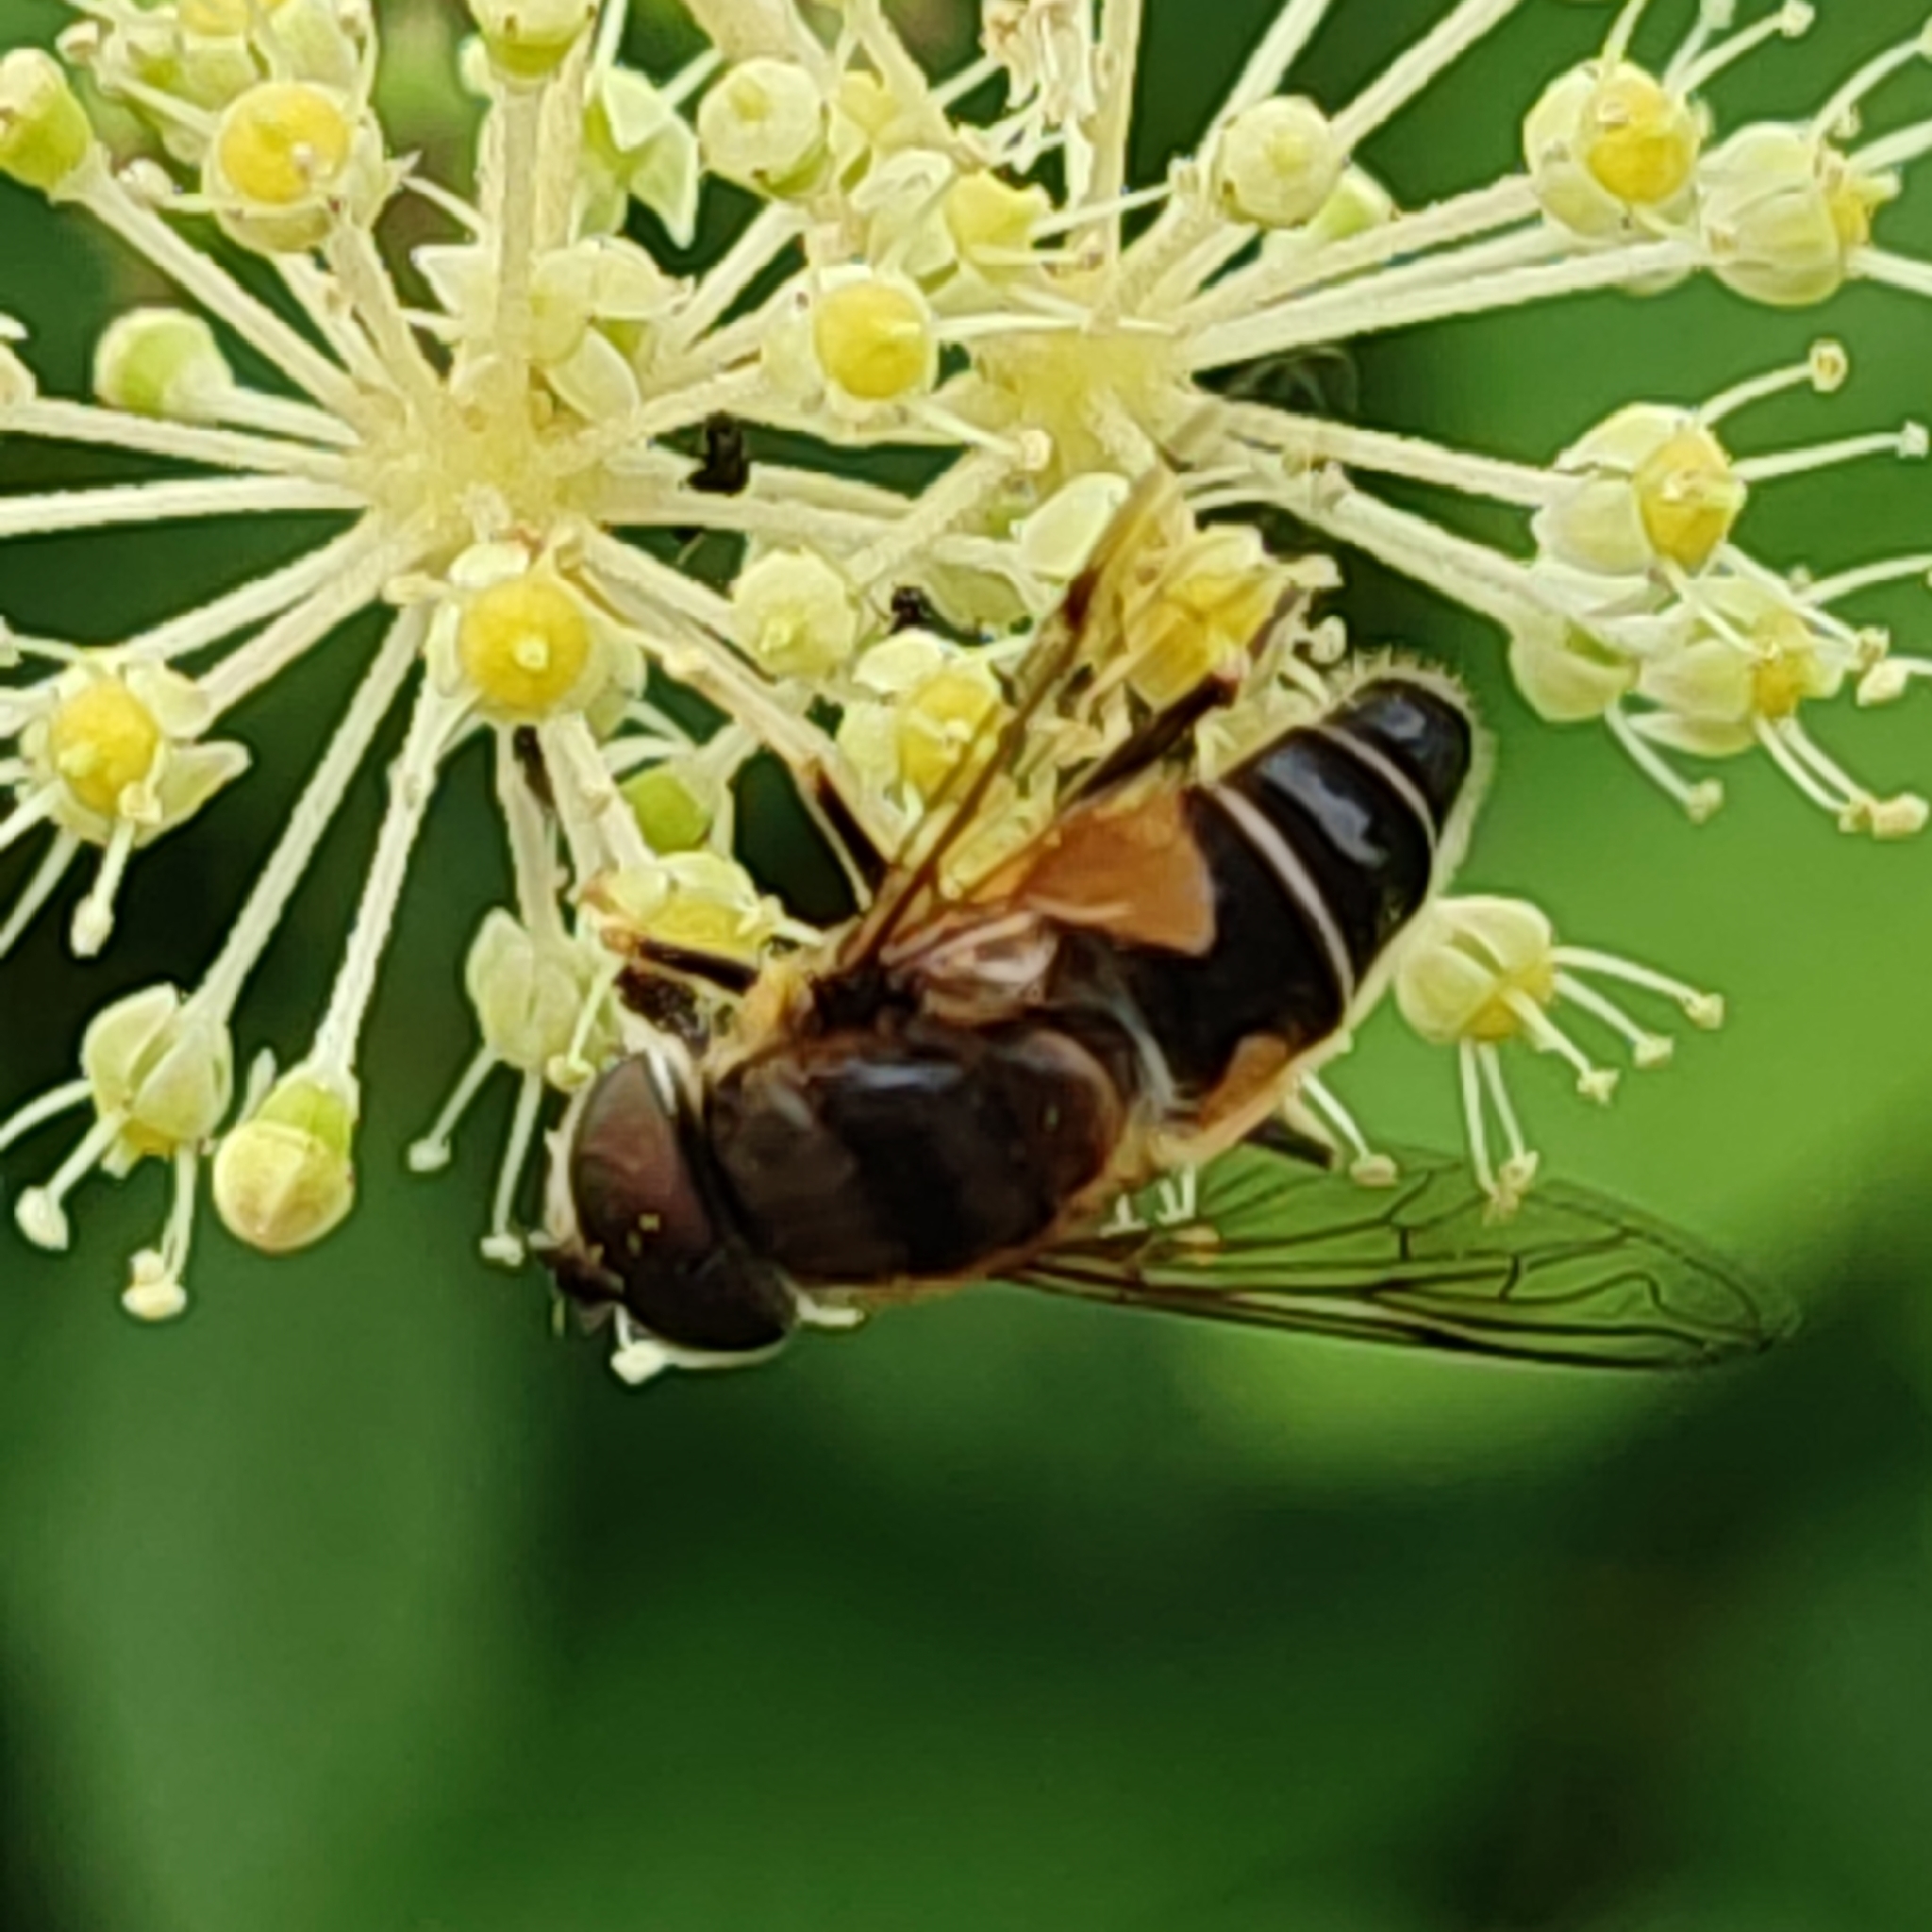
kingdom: Animalia
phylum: Arthropoda
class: Insecta
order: Diptera
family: Syrphidae
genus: Eristalis
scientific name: Eristalis pertinax
